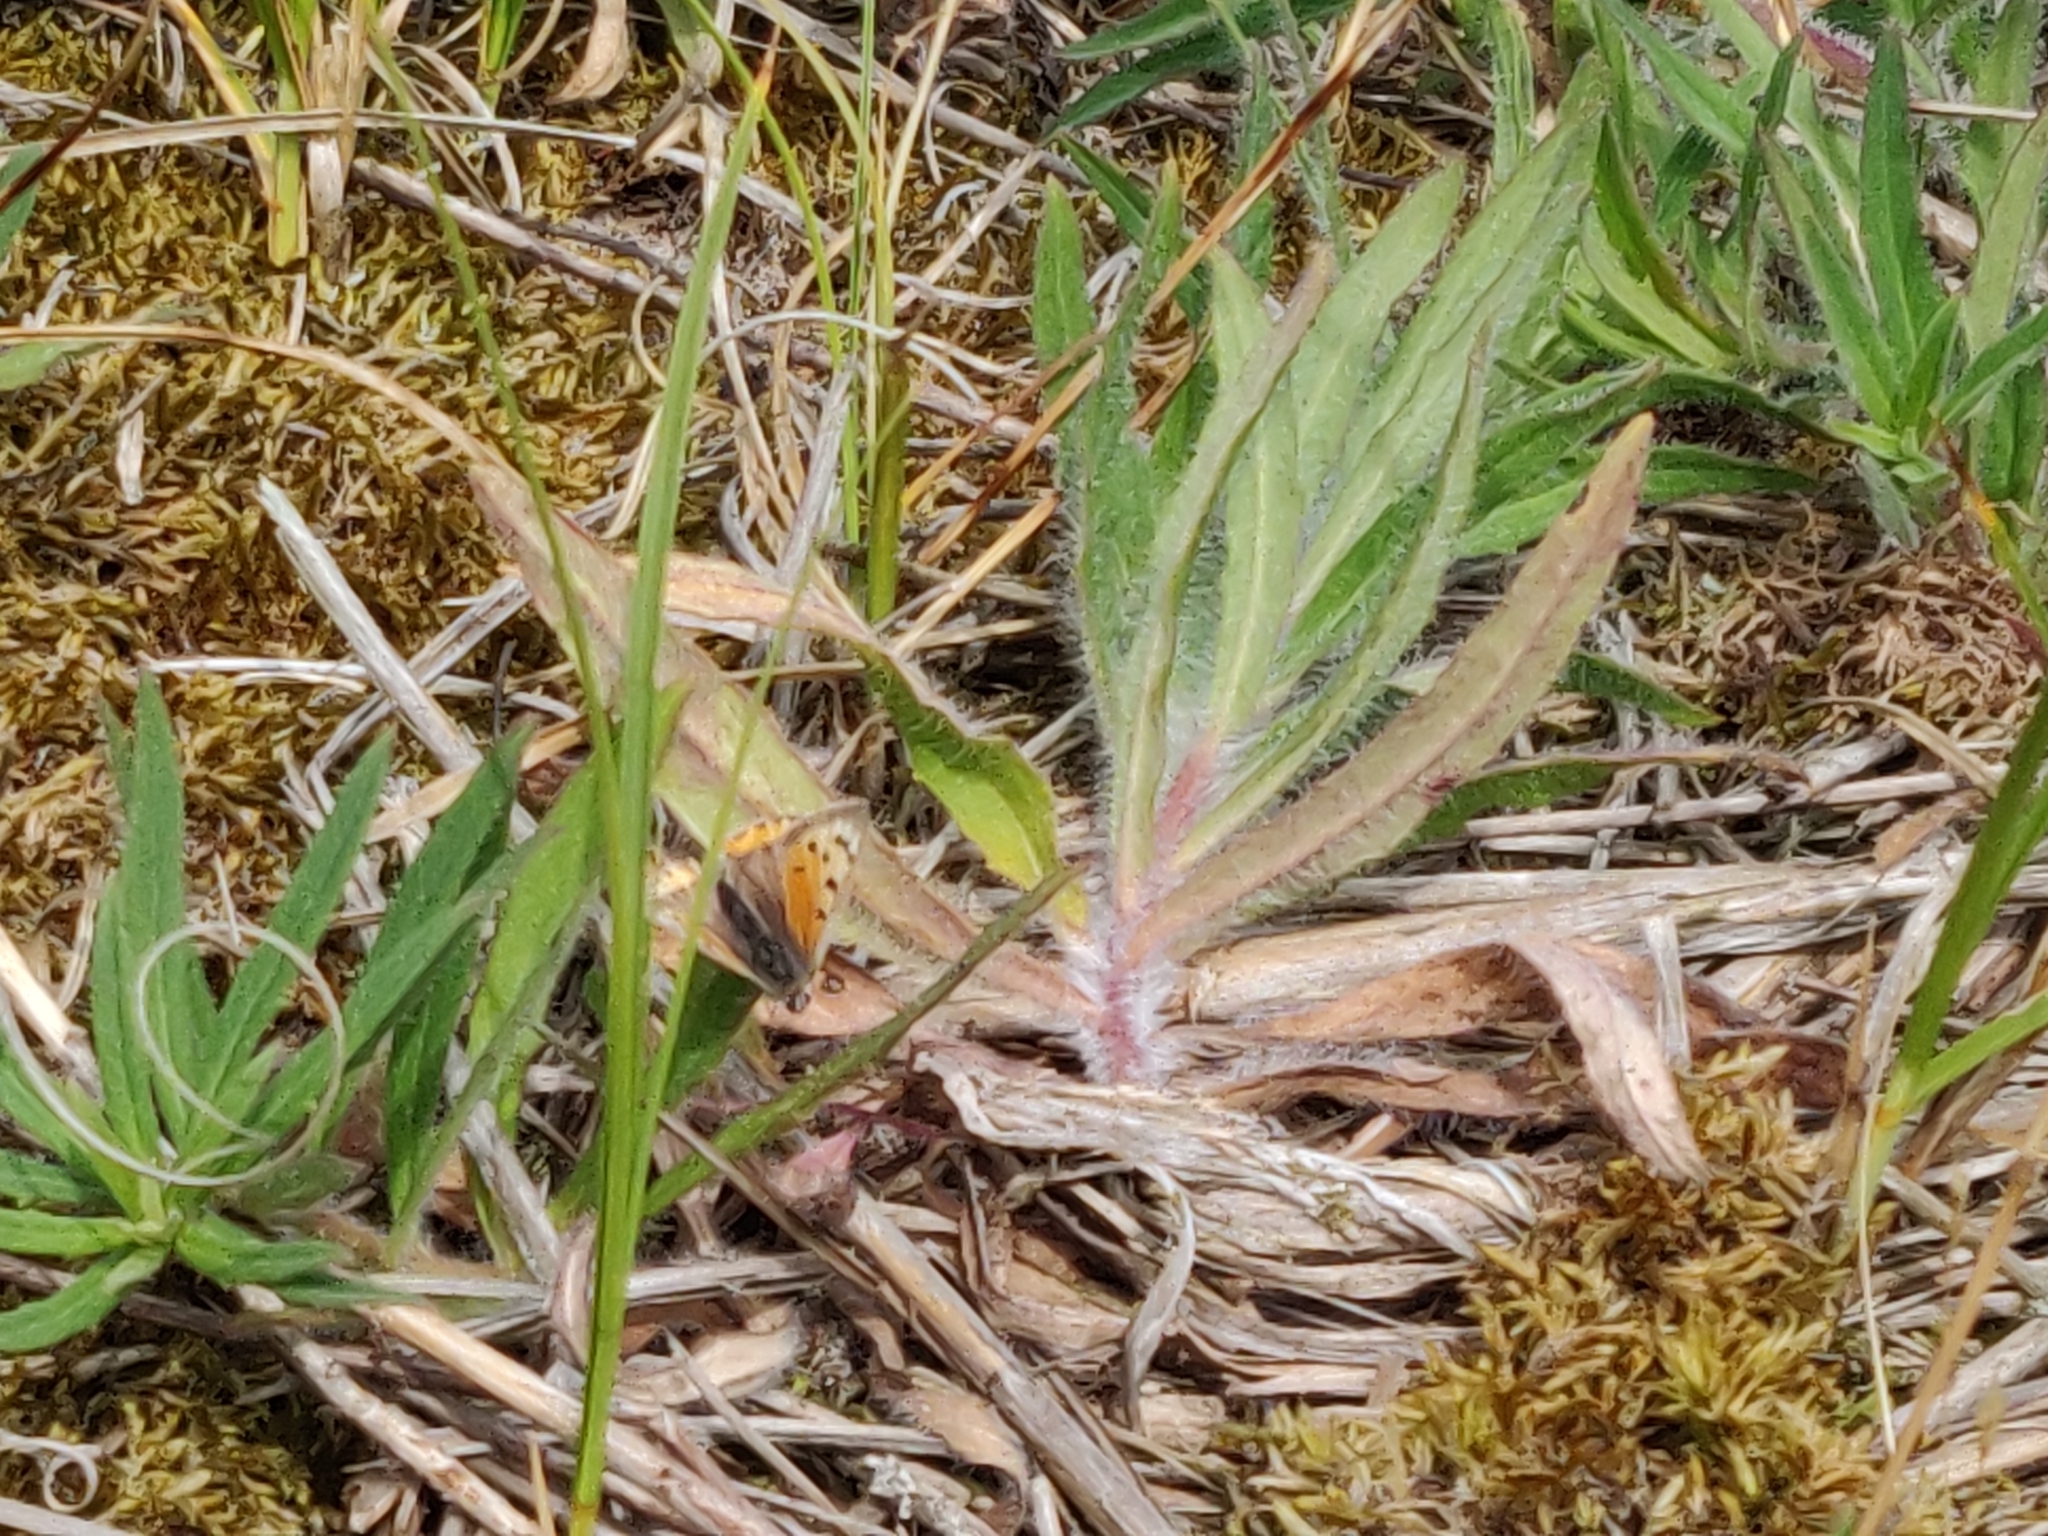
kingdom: Animalia
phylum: Arthropoda
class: Insecta
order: Lepidoptera
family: Lycaenidae
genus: Lycaena
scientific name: Lycaena phlaeas
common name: Small copper
